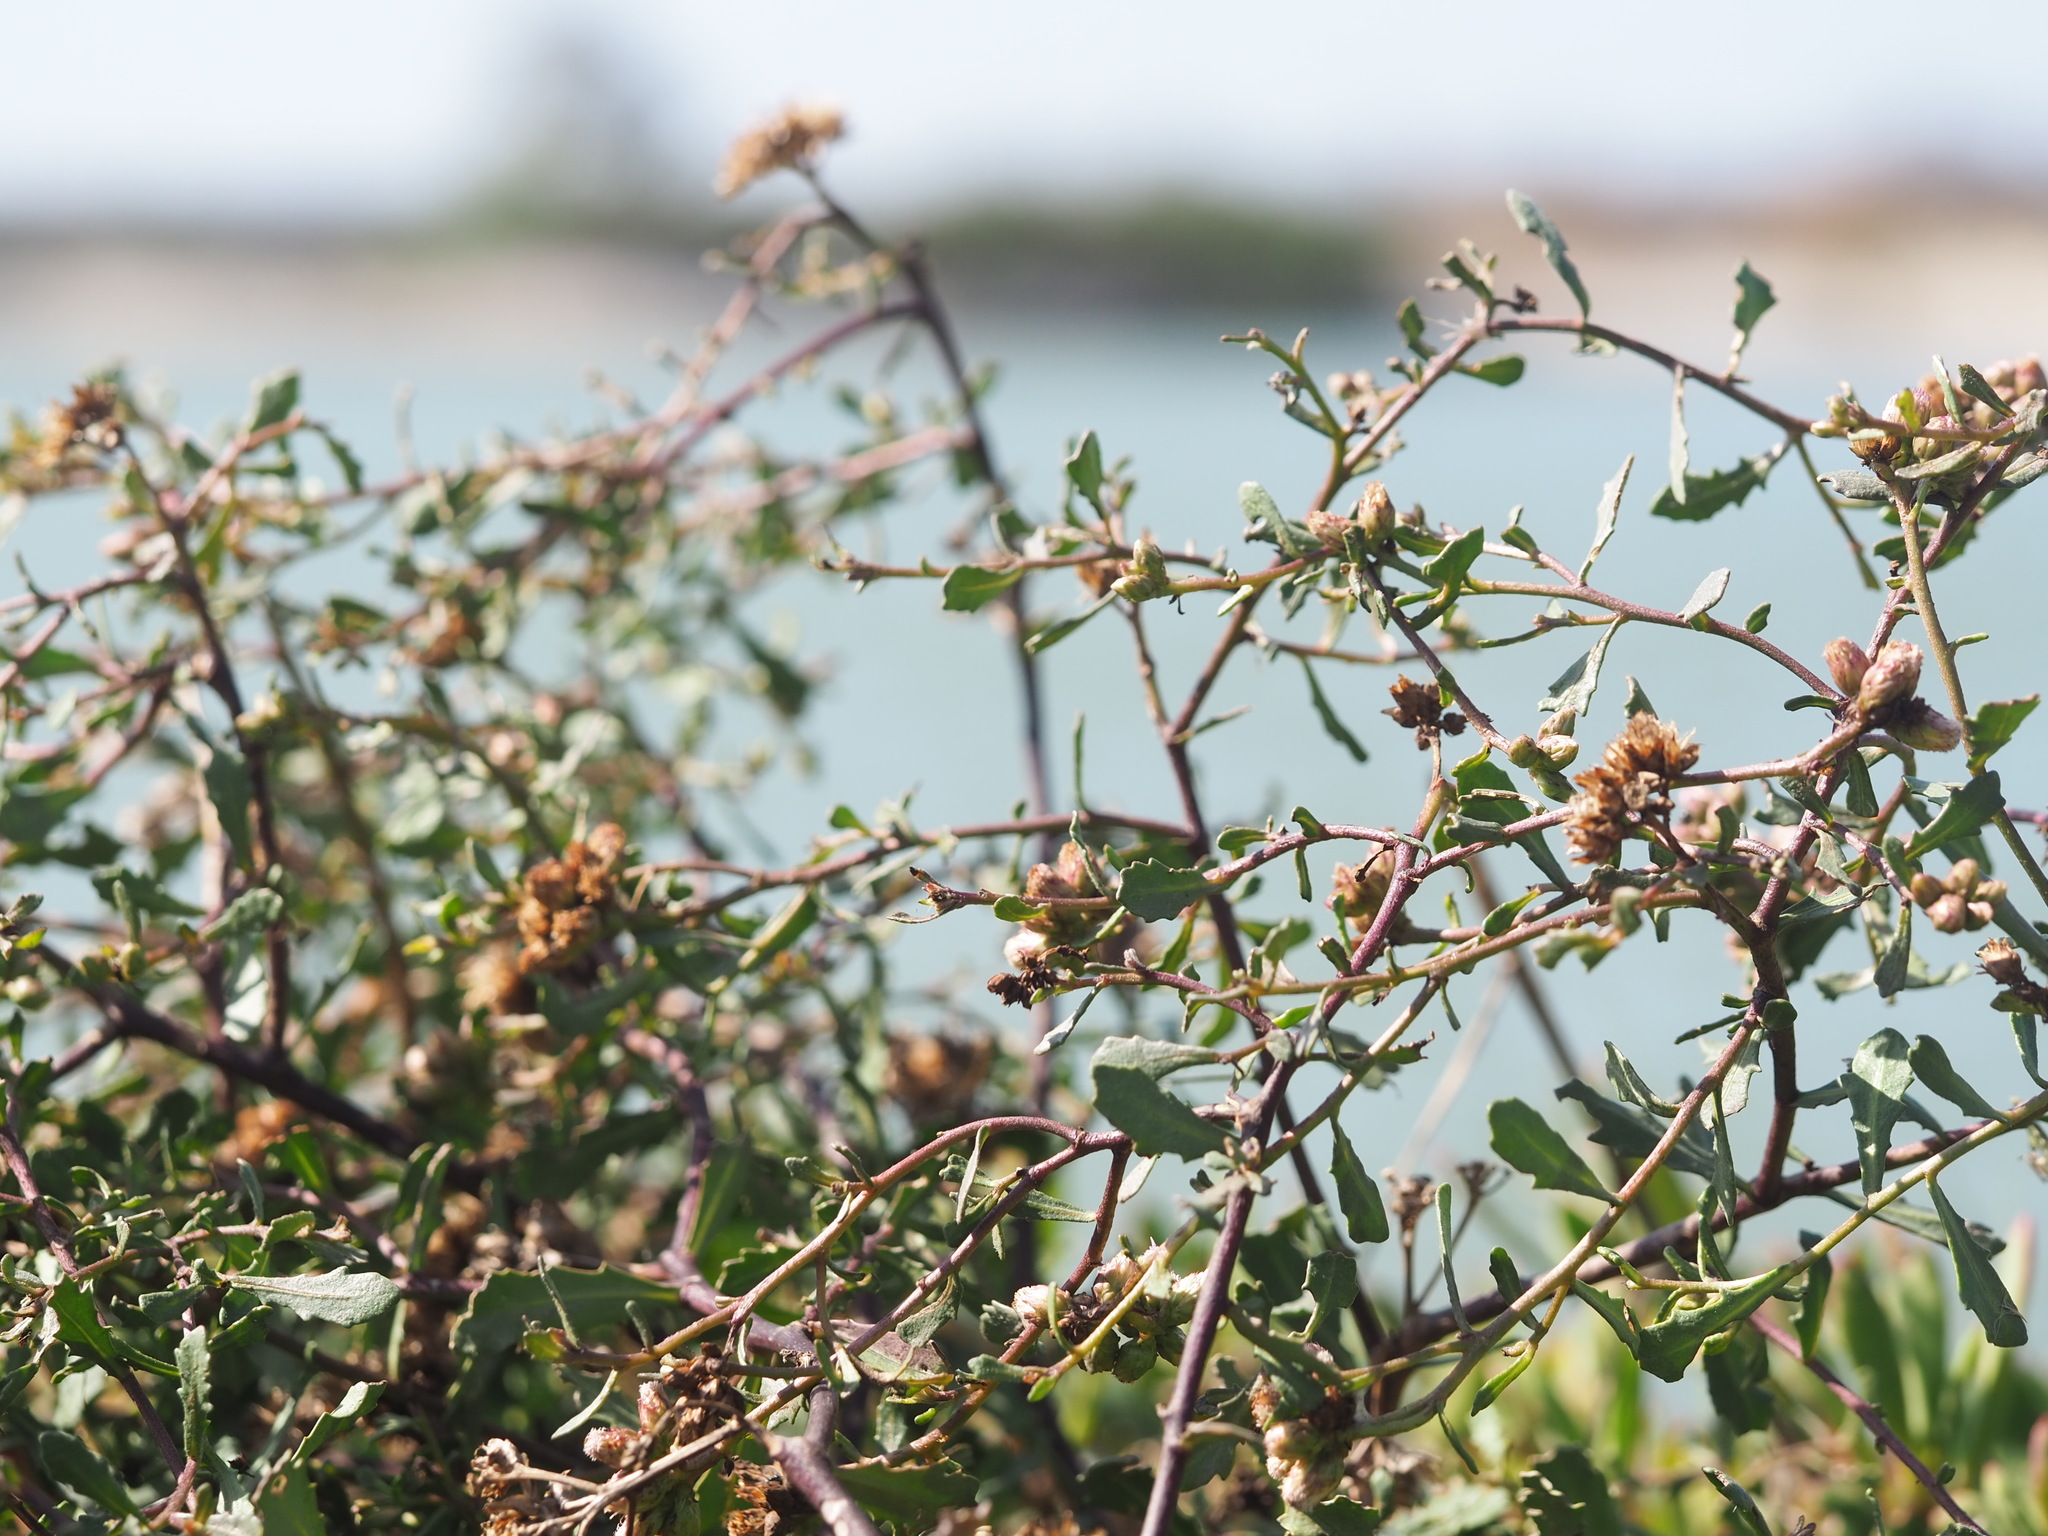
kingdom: Plantae
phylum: Tracheophyta
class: Magnoliopsida
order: Asterales
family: Asteraceae
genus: Pluchea
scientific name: Pluchea pteropoda
